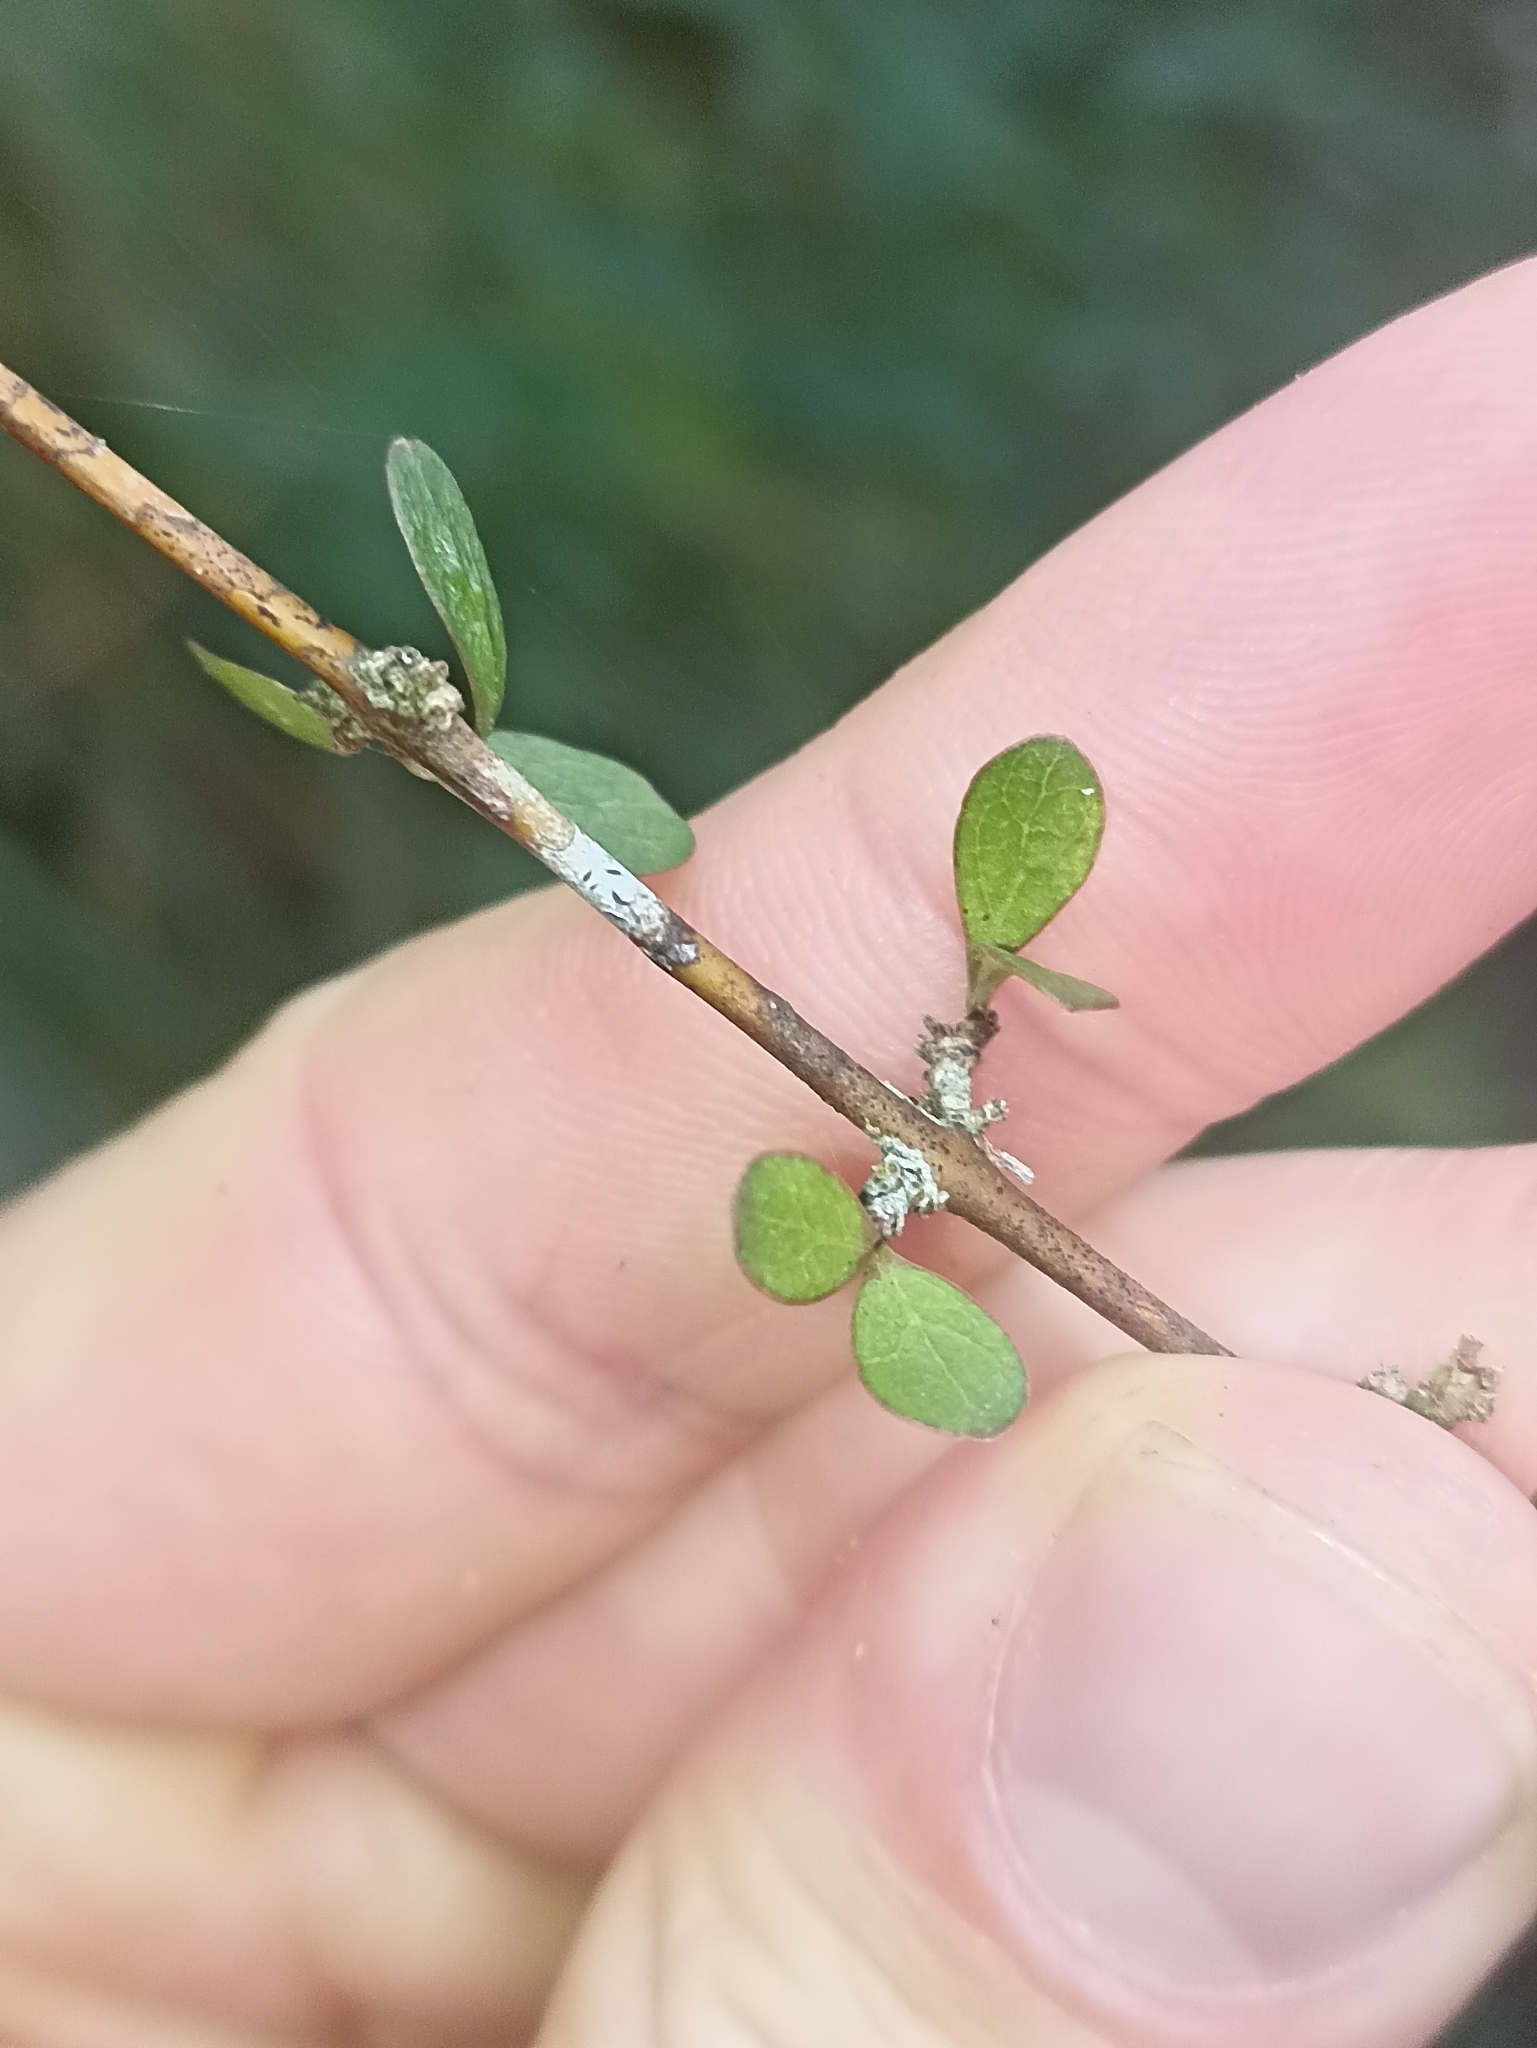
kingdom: Plantae
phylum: Tracheophyta
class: Magnoliopsida
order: Gentianales
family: Rubiaceae
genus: Coprosma
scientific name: Coprosma rigida
